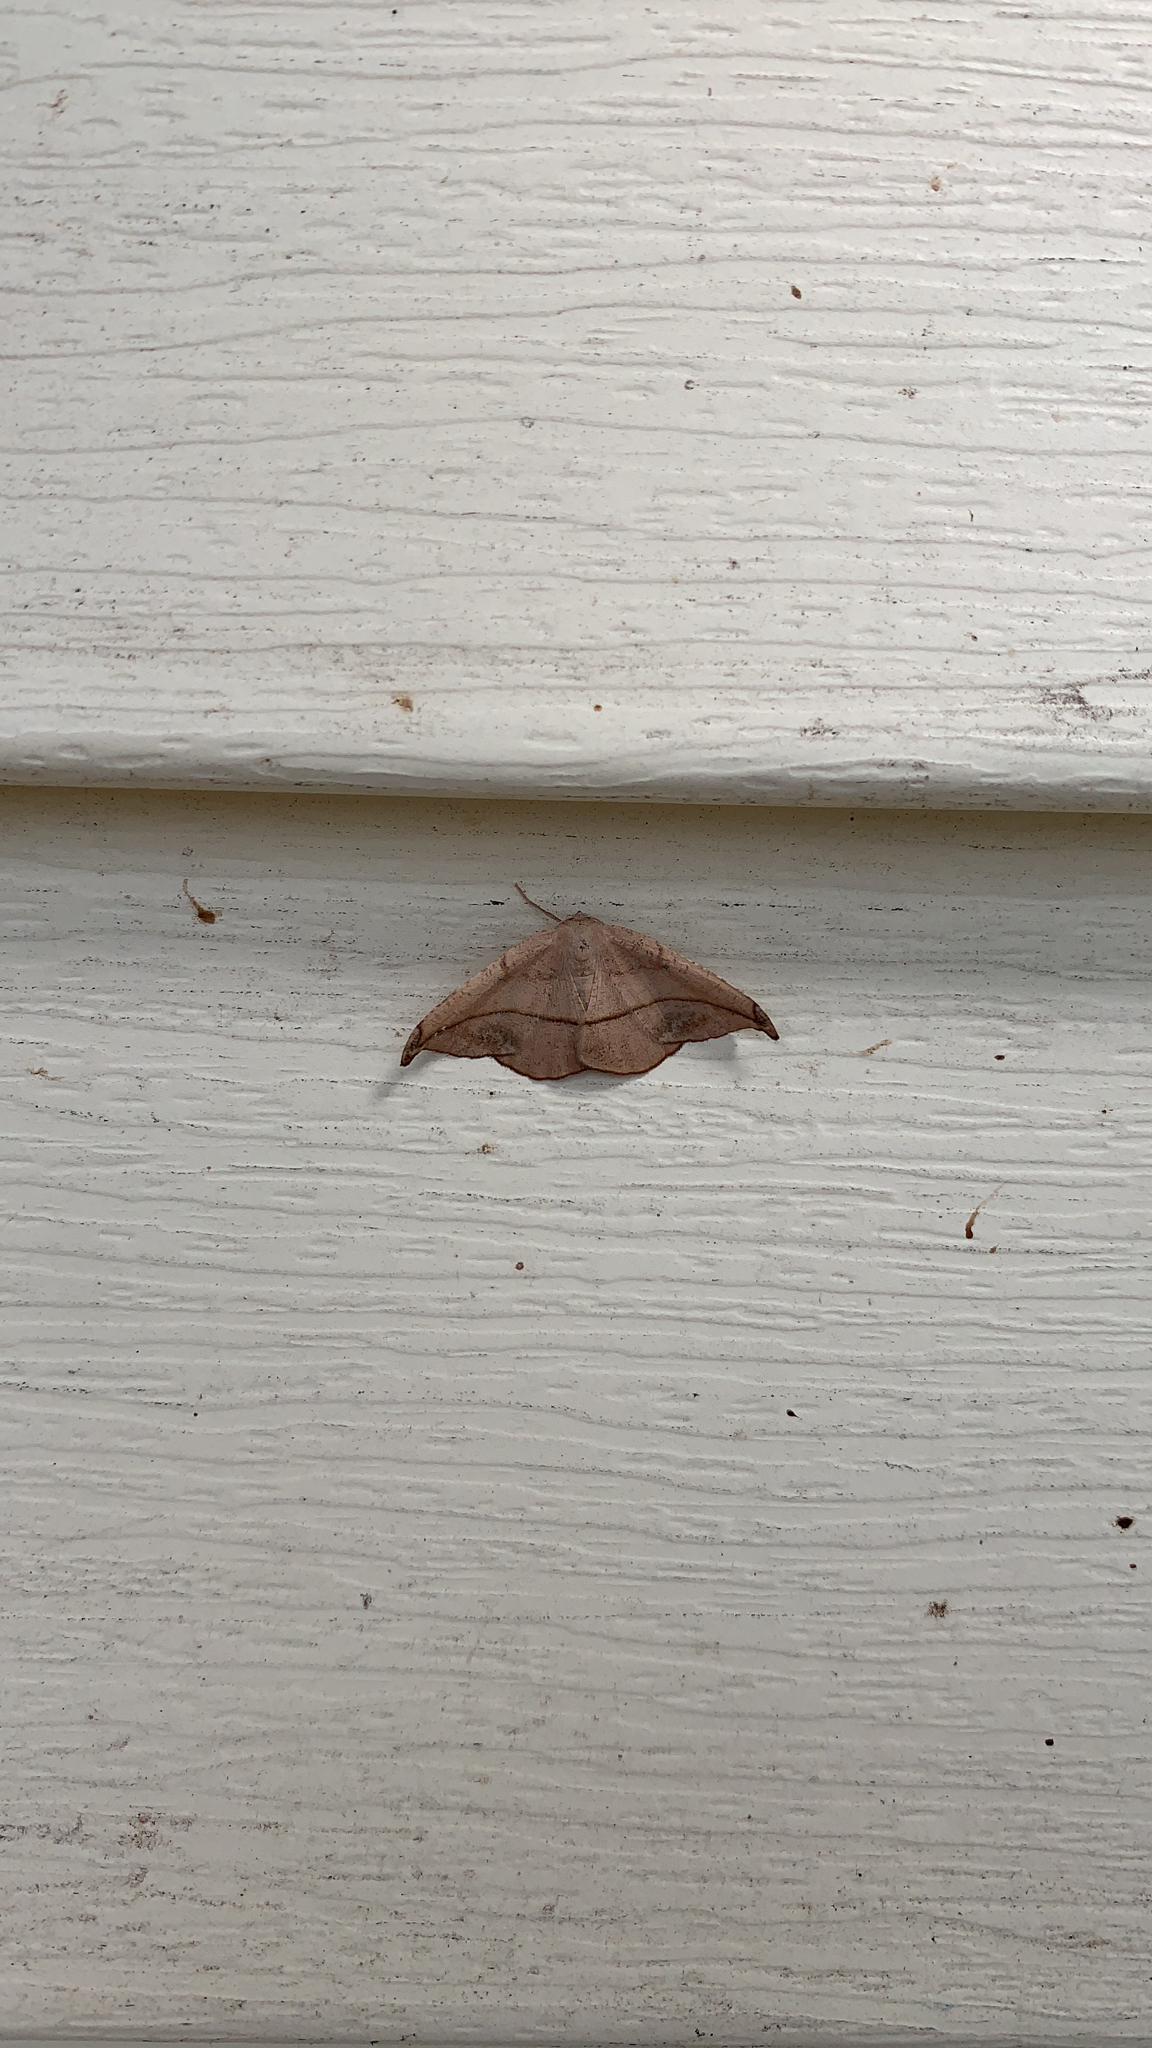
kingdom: Animalia
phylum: Arthropoda
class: Insecta
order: Lepidoptera
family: Geometridae
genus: Patalene
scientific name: Patalene olyzonaria
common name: Juniper geometer moth
